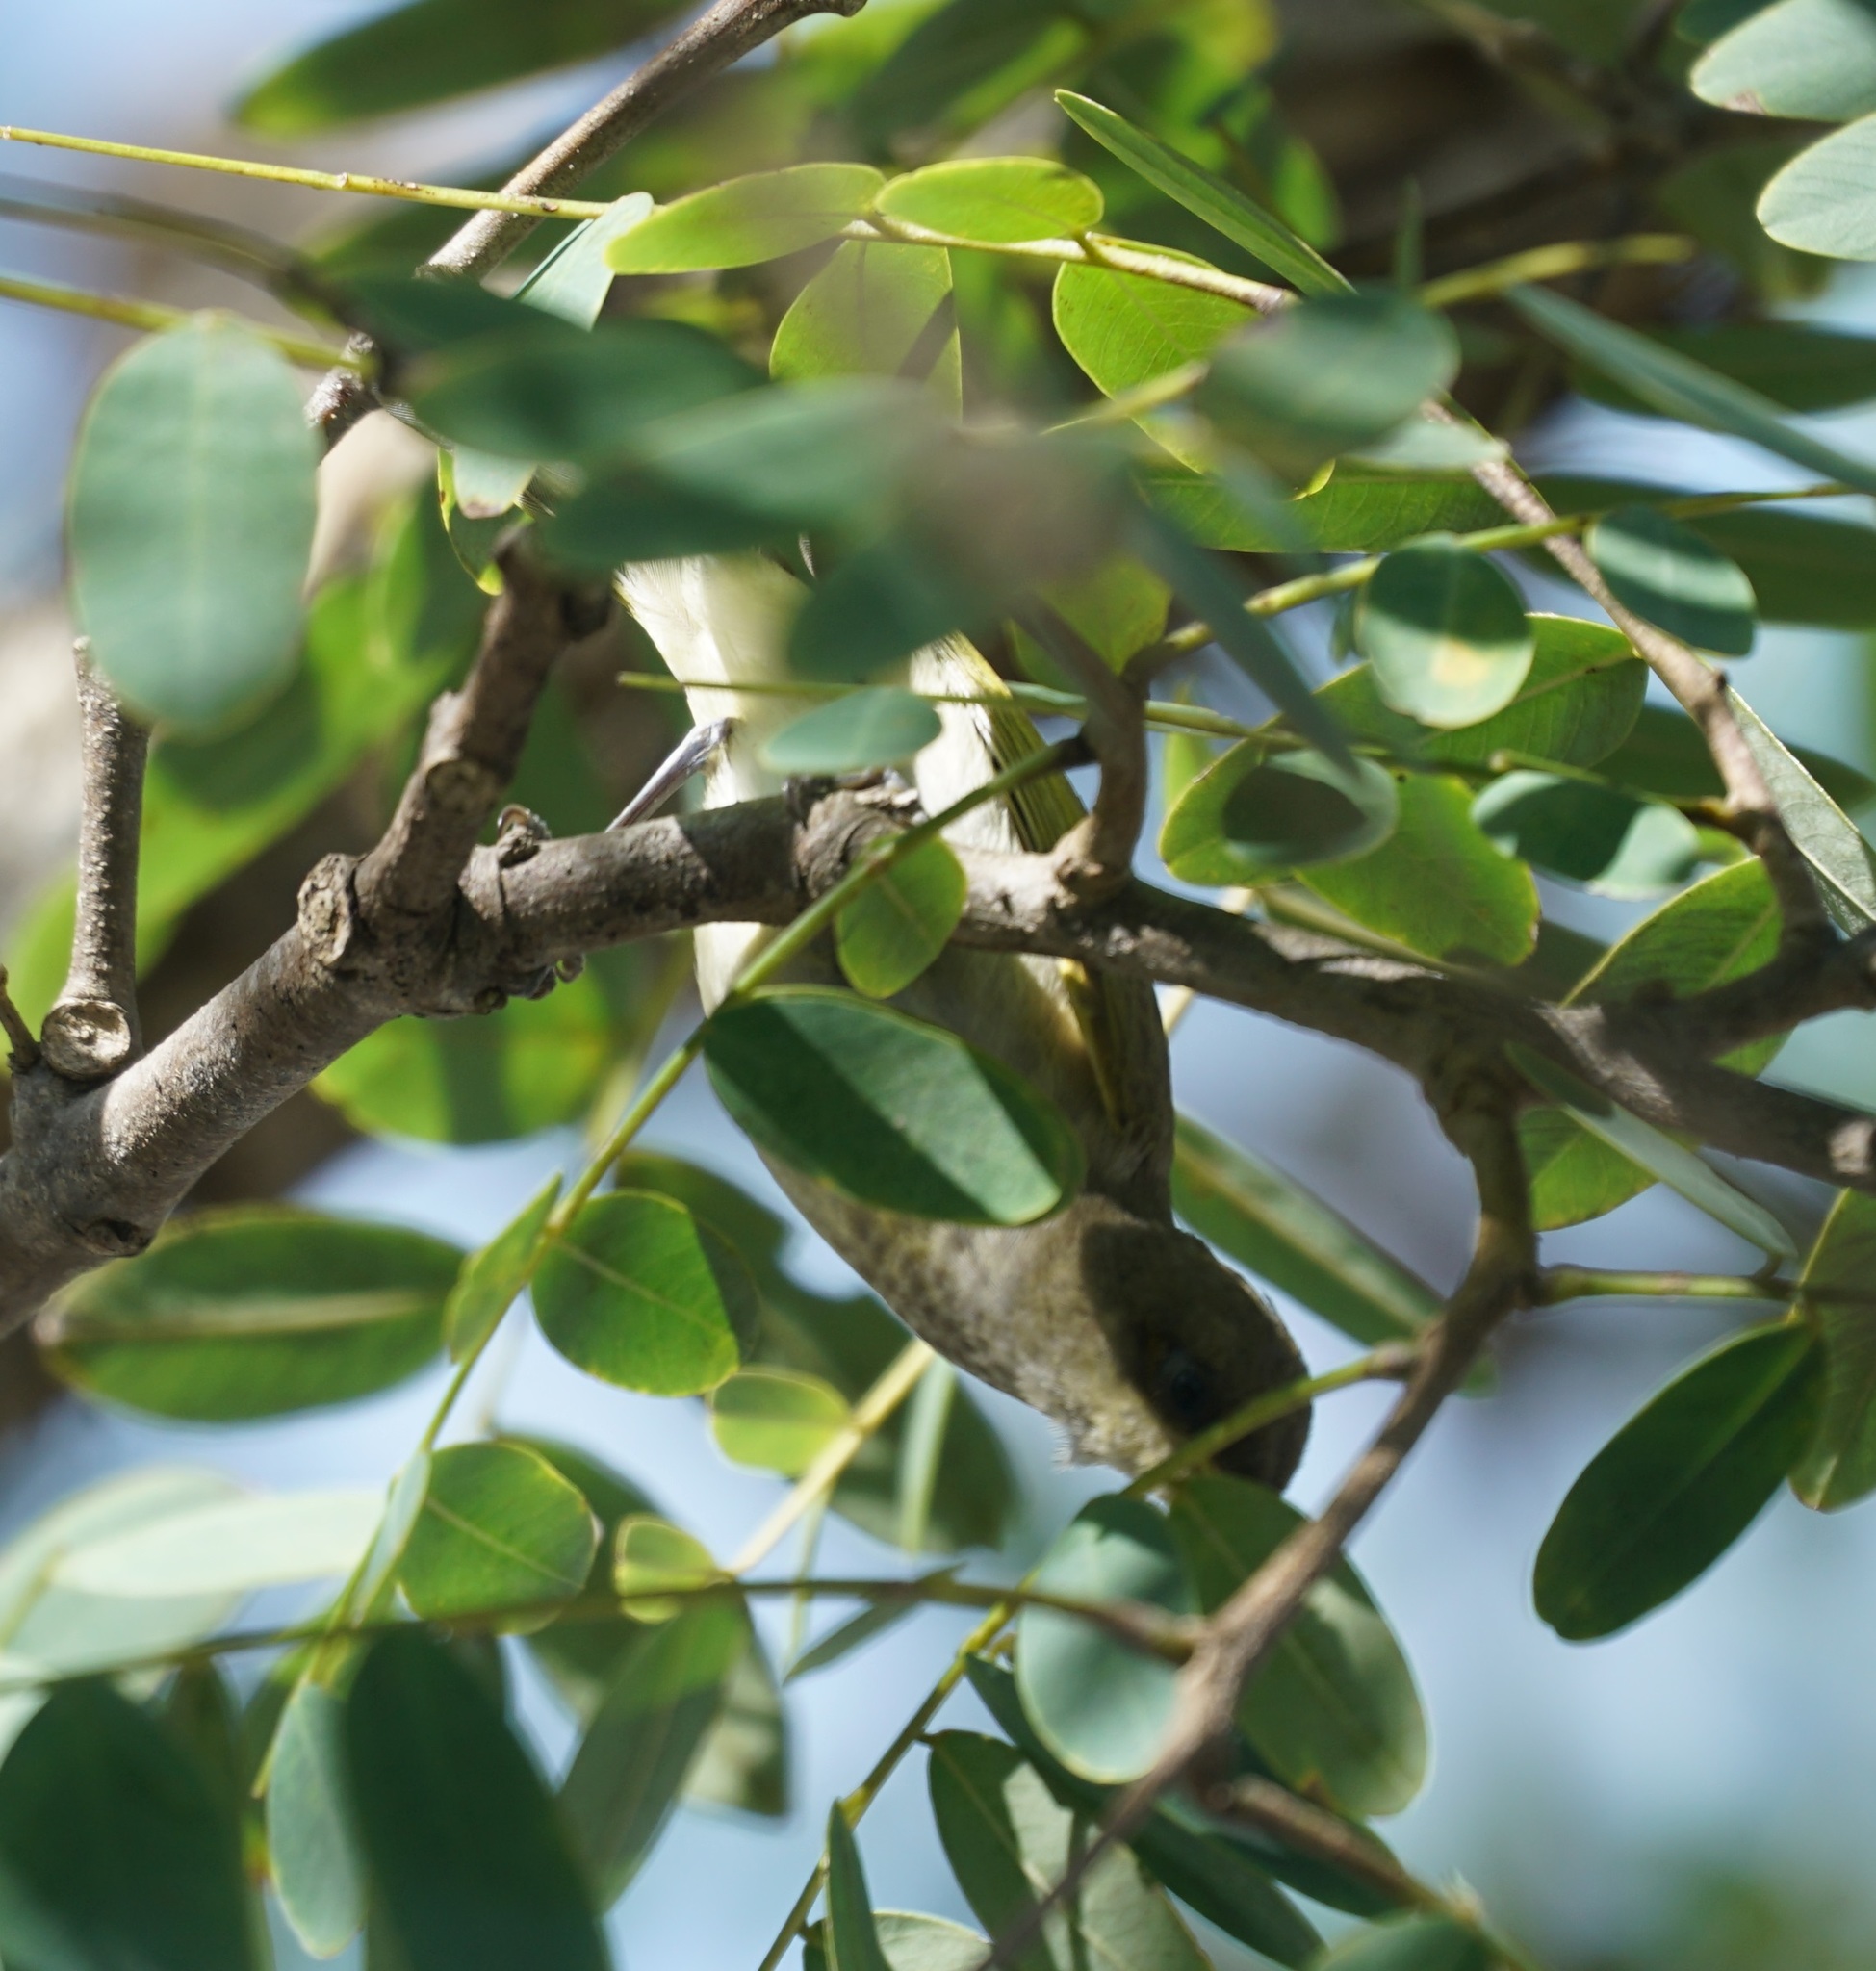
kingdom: Animalia
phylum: Chordata
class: Aves
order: Passeriformes
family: Meliphagidae
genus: Lichmera
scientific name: Lichmera indistincta
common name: Brown honeyeater
